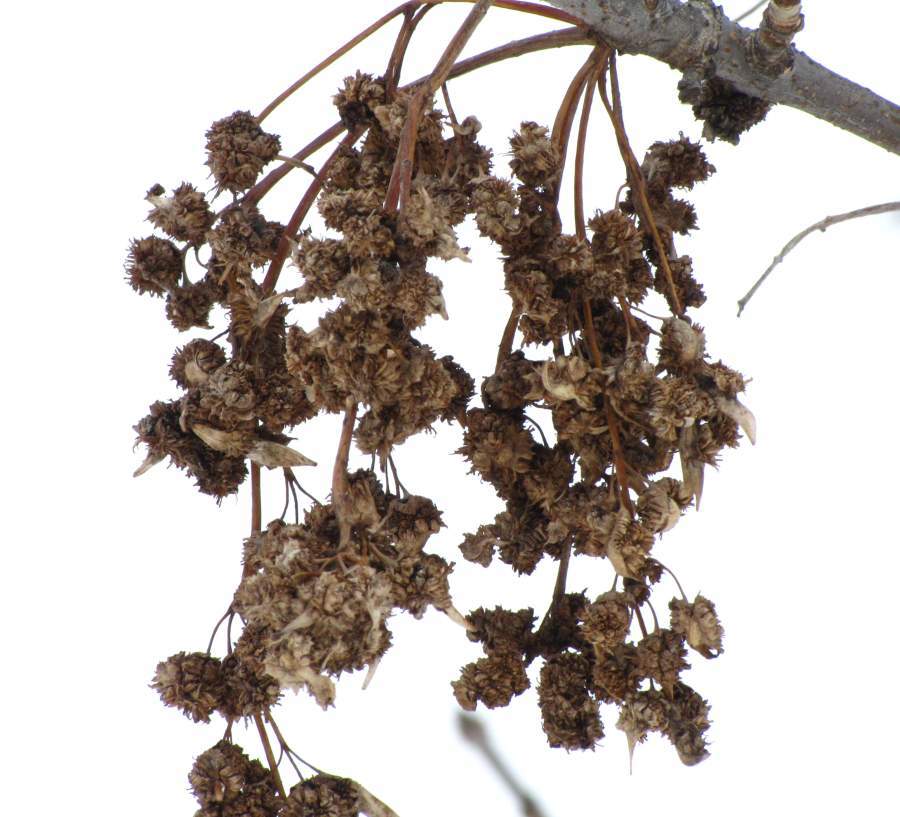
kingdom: Animalia
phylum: Arthropoda
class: Arachnida
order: Trombidiformes
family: Eriophyidae
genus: Aceria
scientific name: Aceria fraxiniflora
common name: Ash flower gall mite
